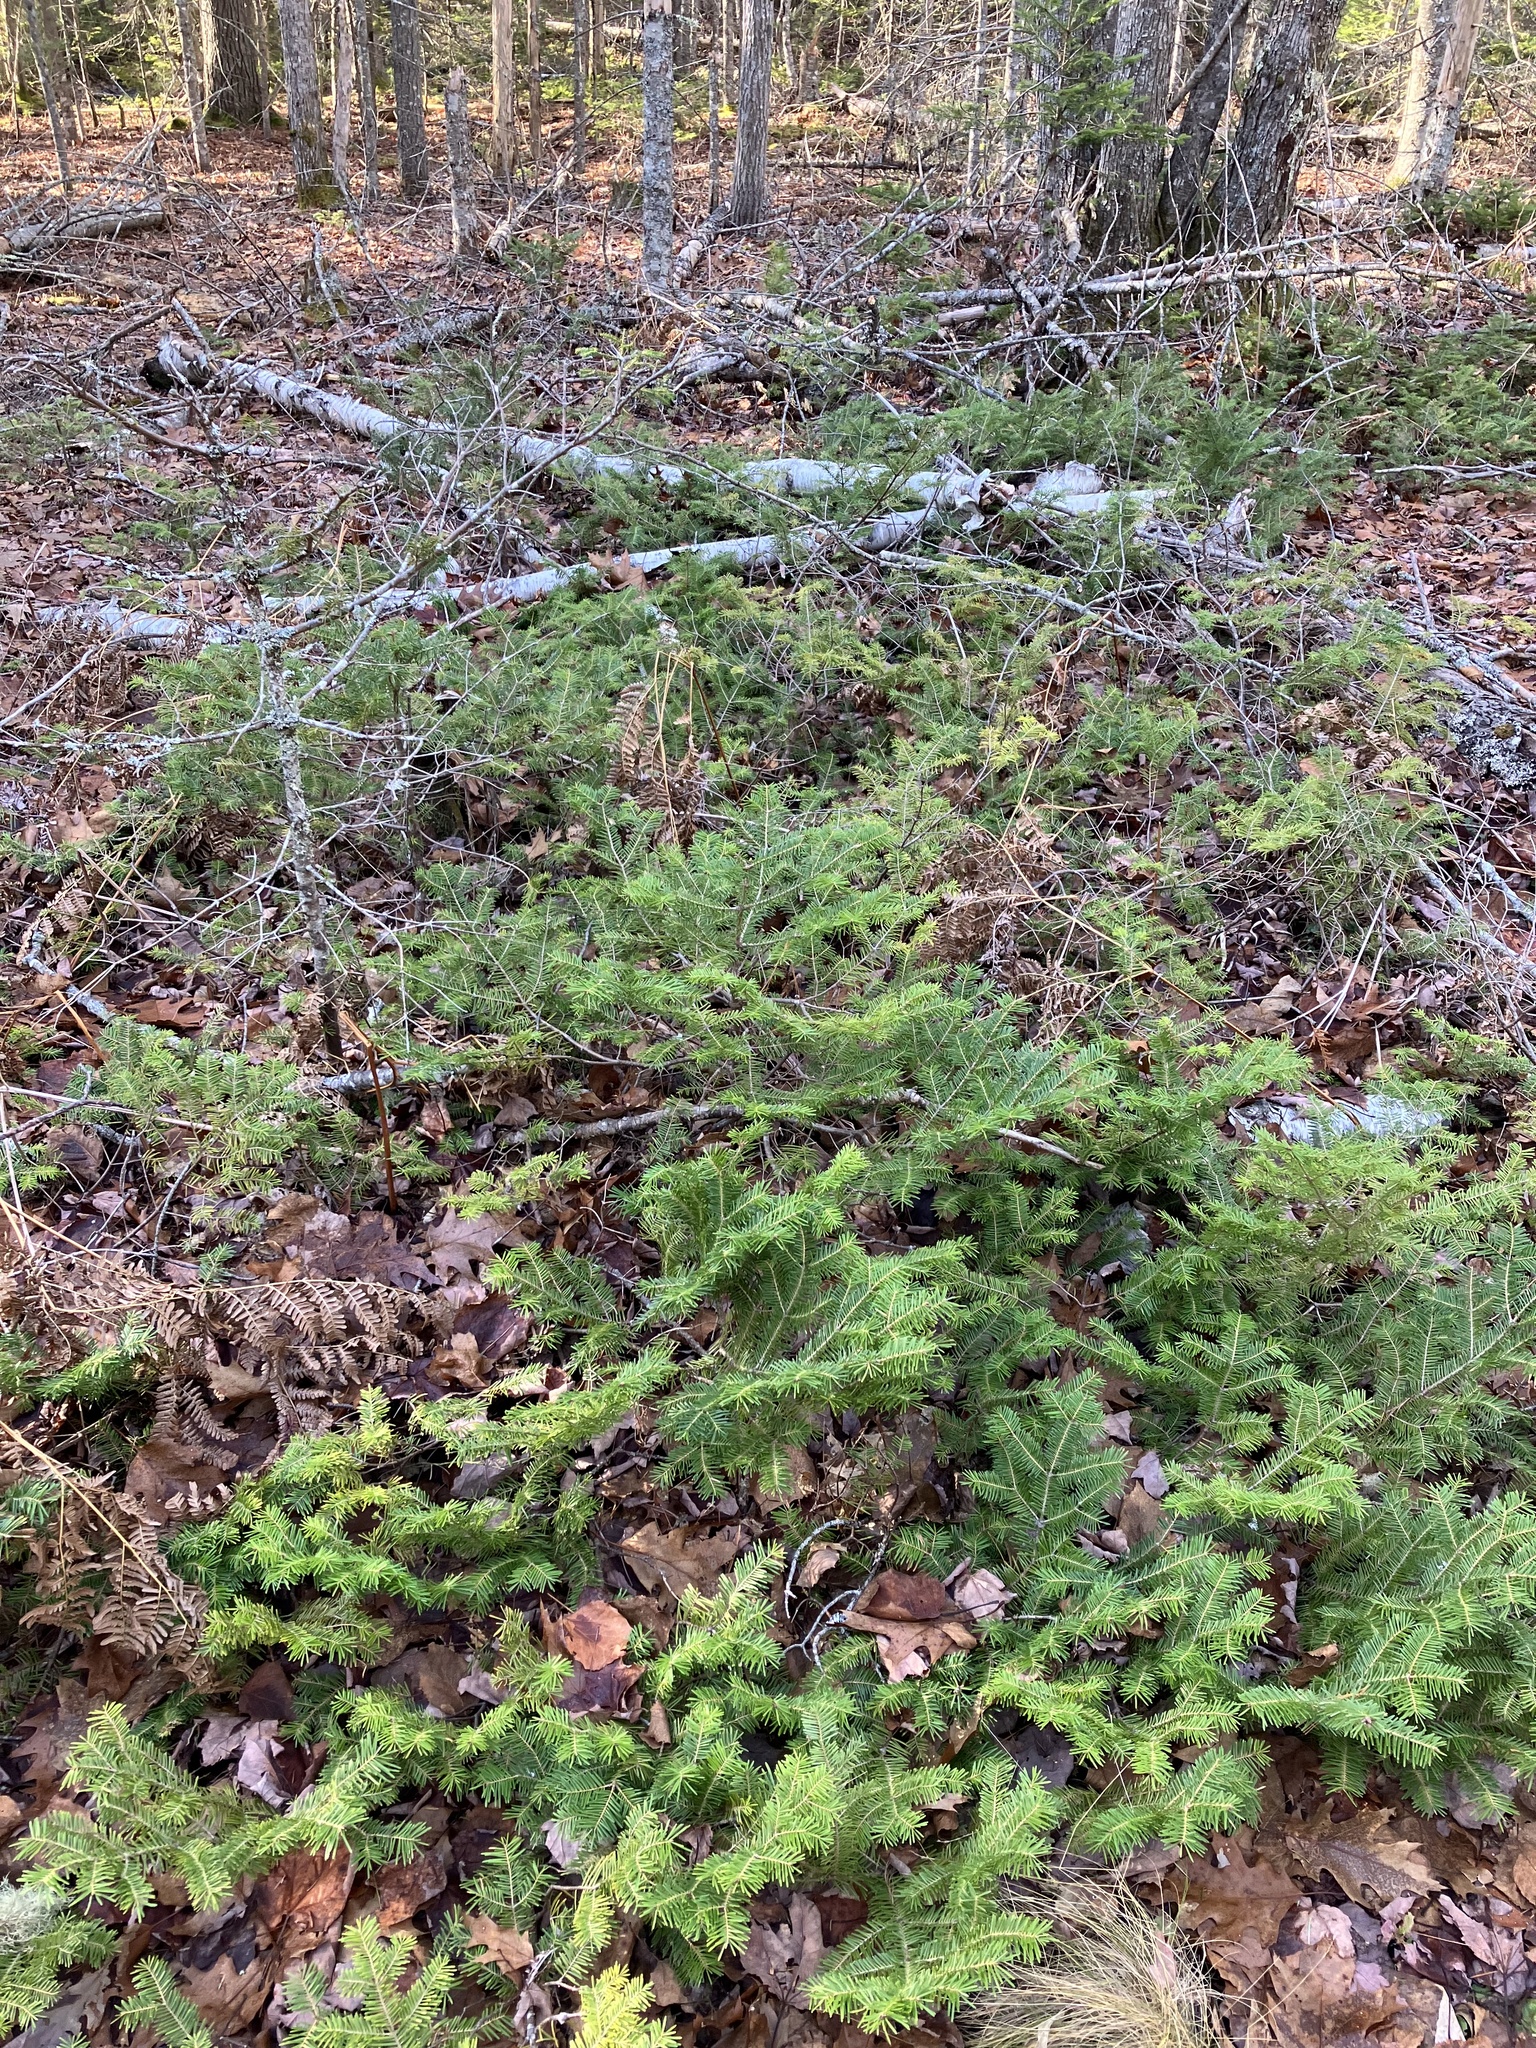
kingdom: Plantae
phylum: Tracheophyta
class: Pinopsida
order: Pinales
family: Pinaceae
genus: Abies
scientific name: Abies balsamea
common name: Balsam fir
